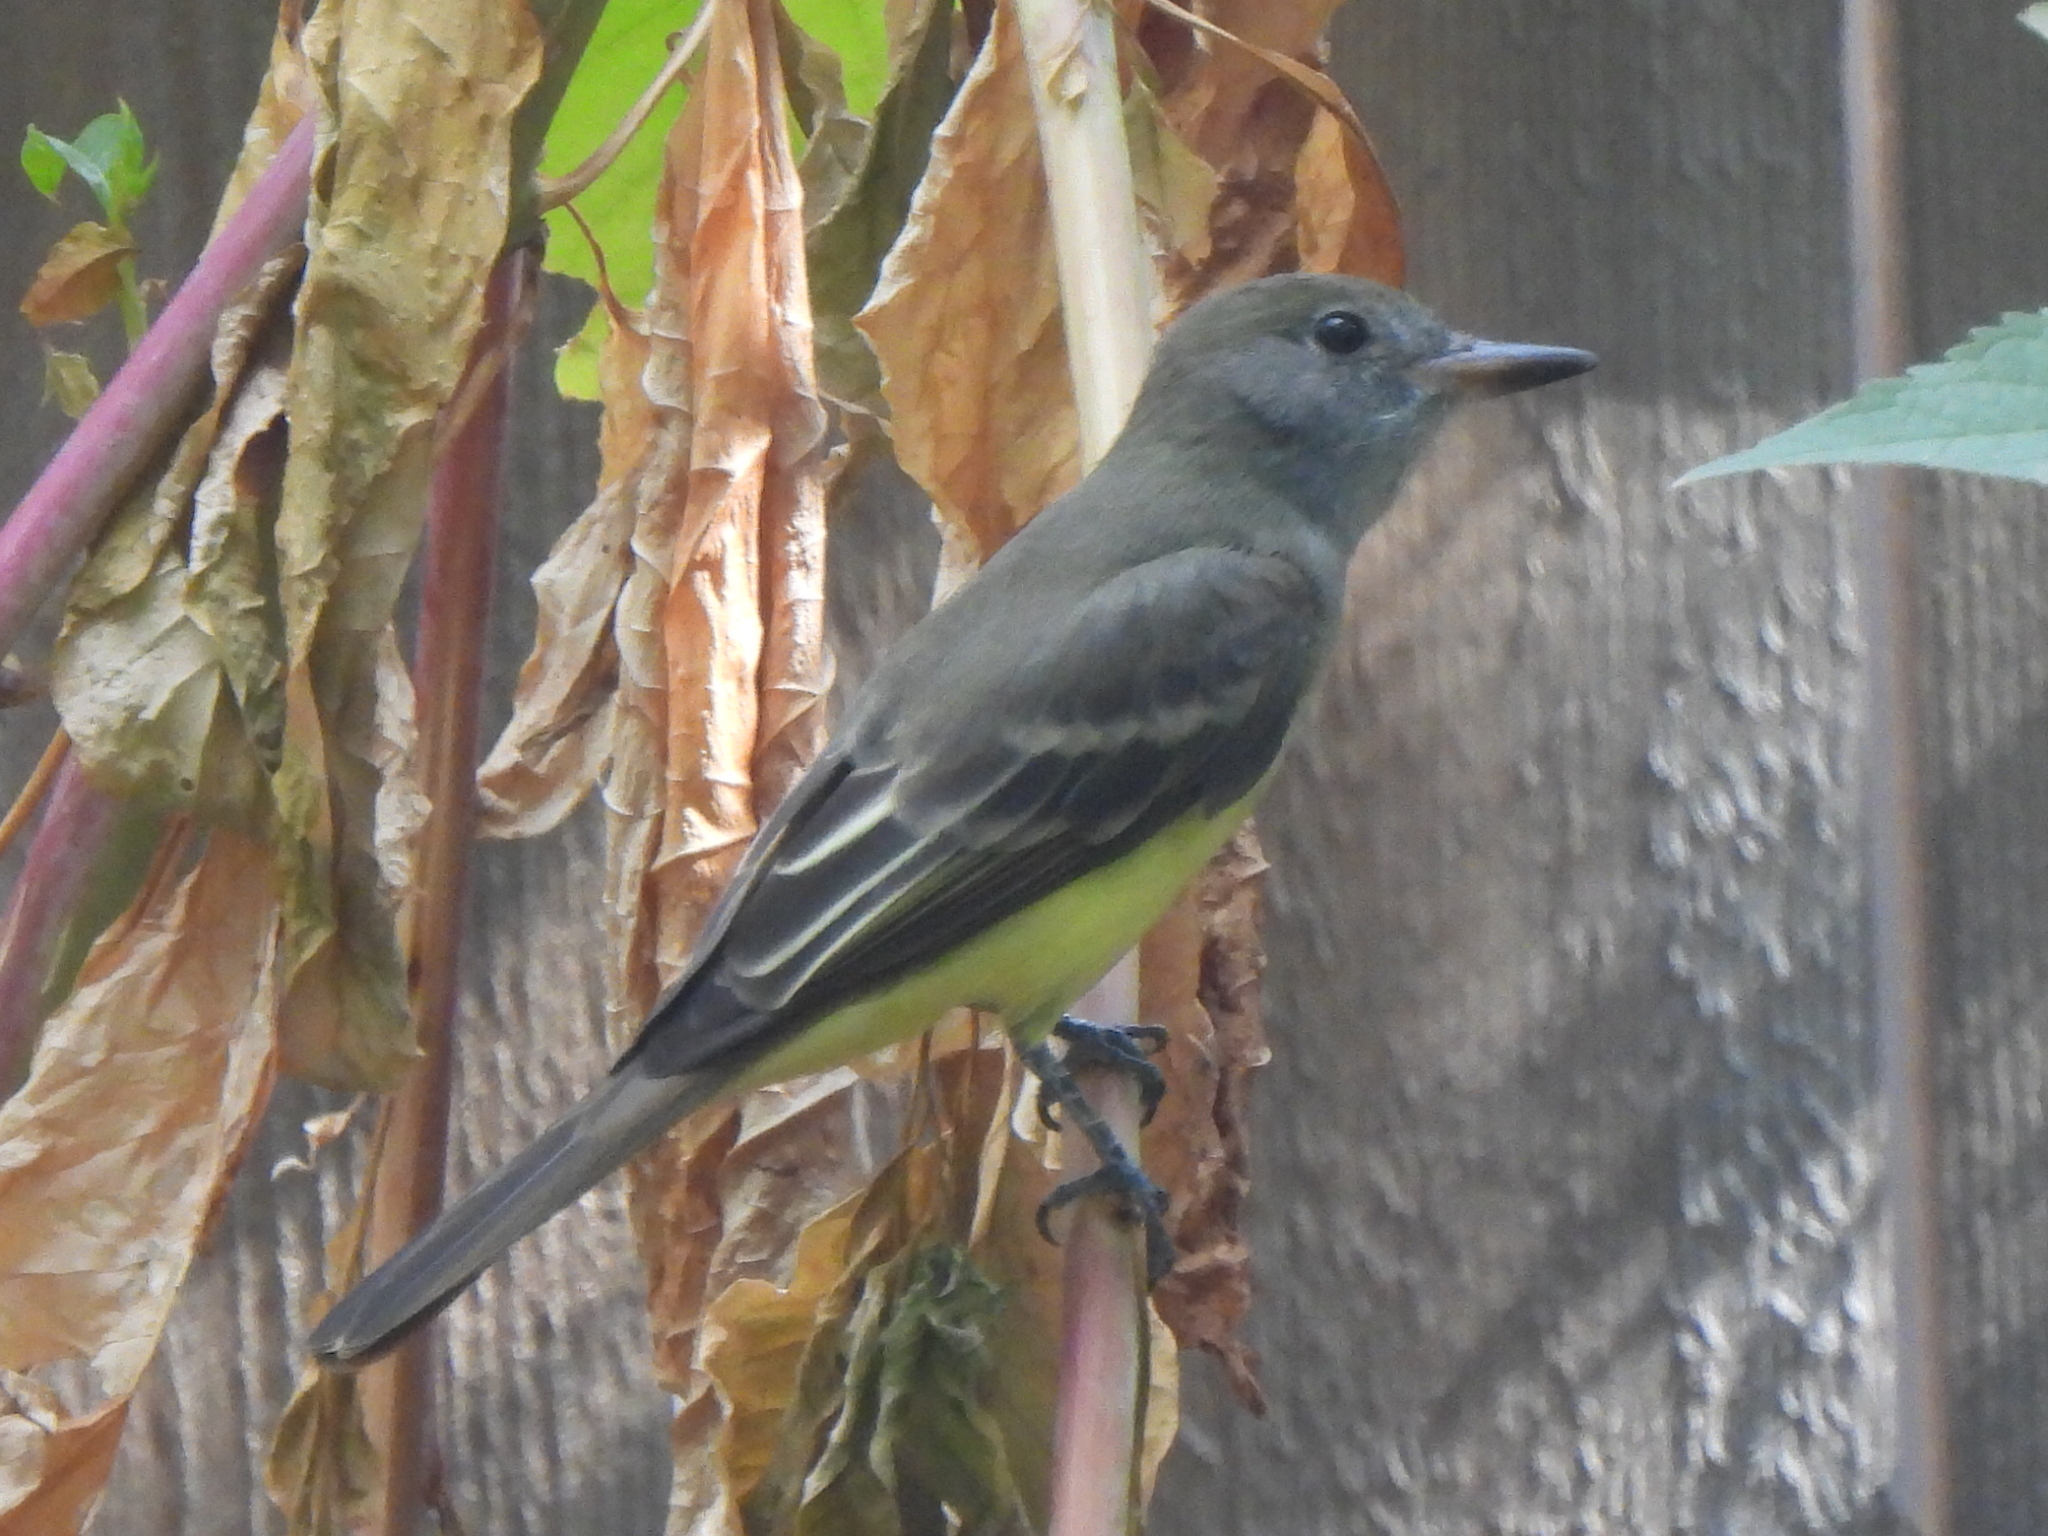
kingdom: Animalia
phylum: Chordata
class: Aves
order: Passeriformes
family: Tyrannidae
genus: Myiarchus
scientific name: Myiarchus crinitus
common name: Great crested flycatcher
